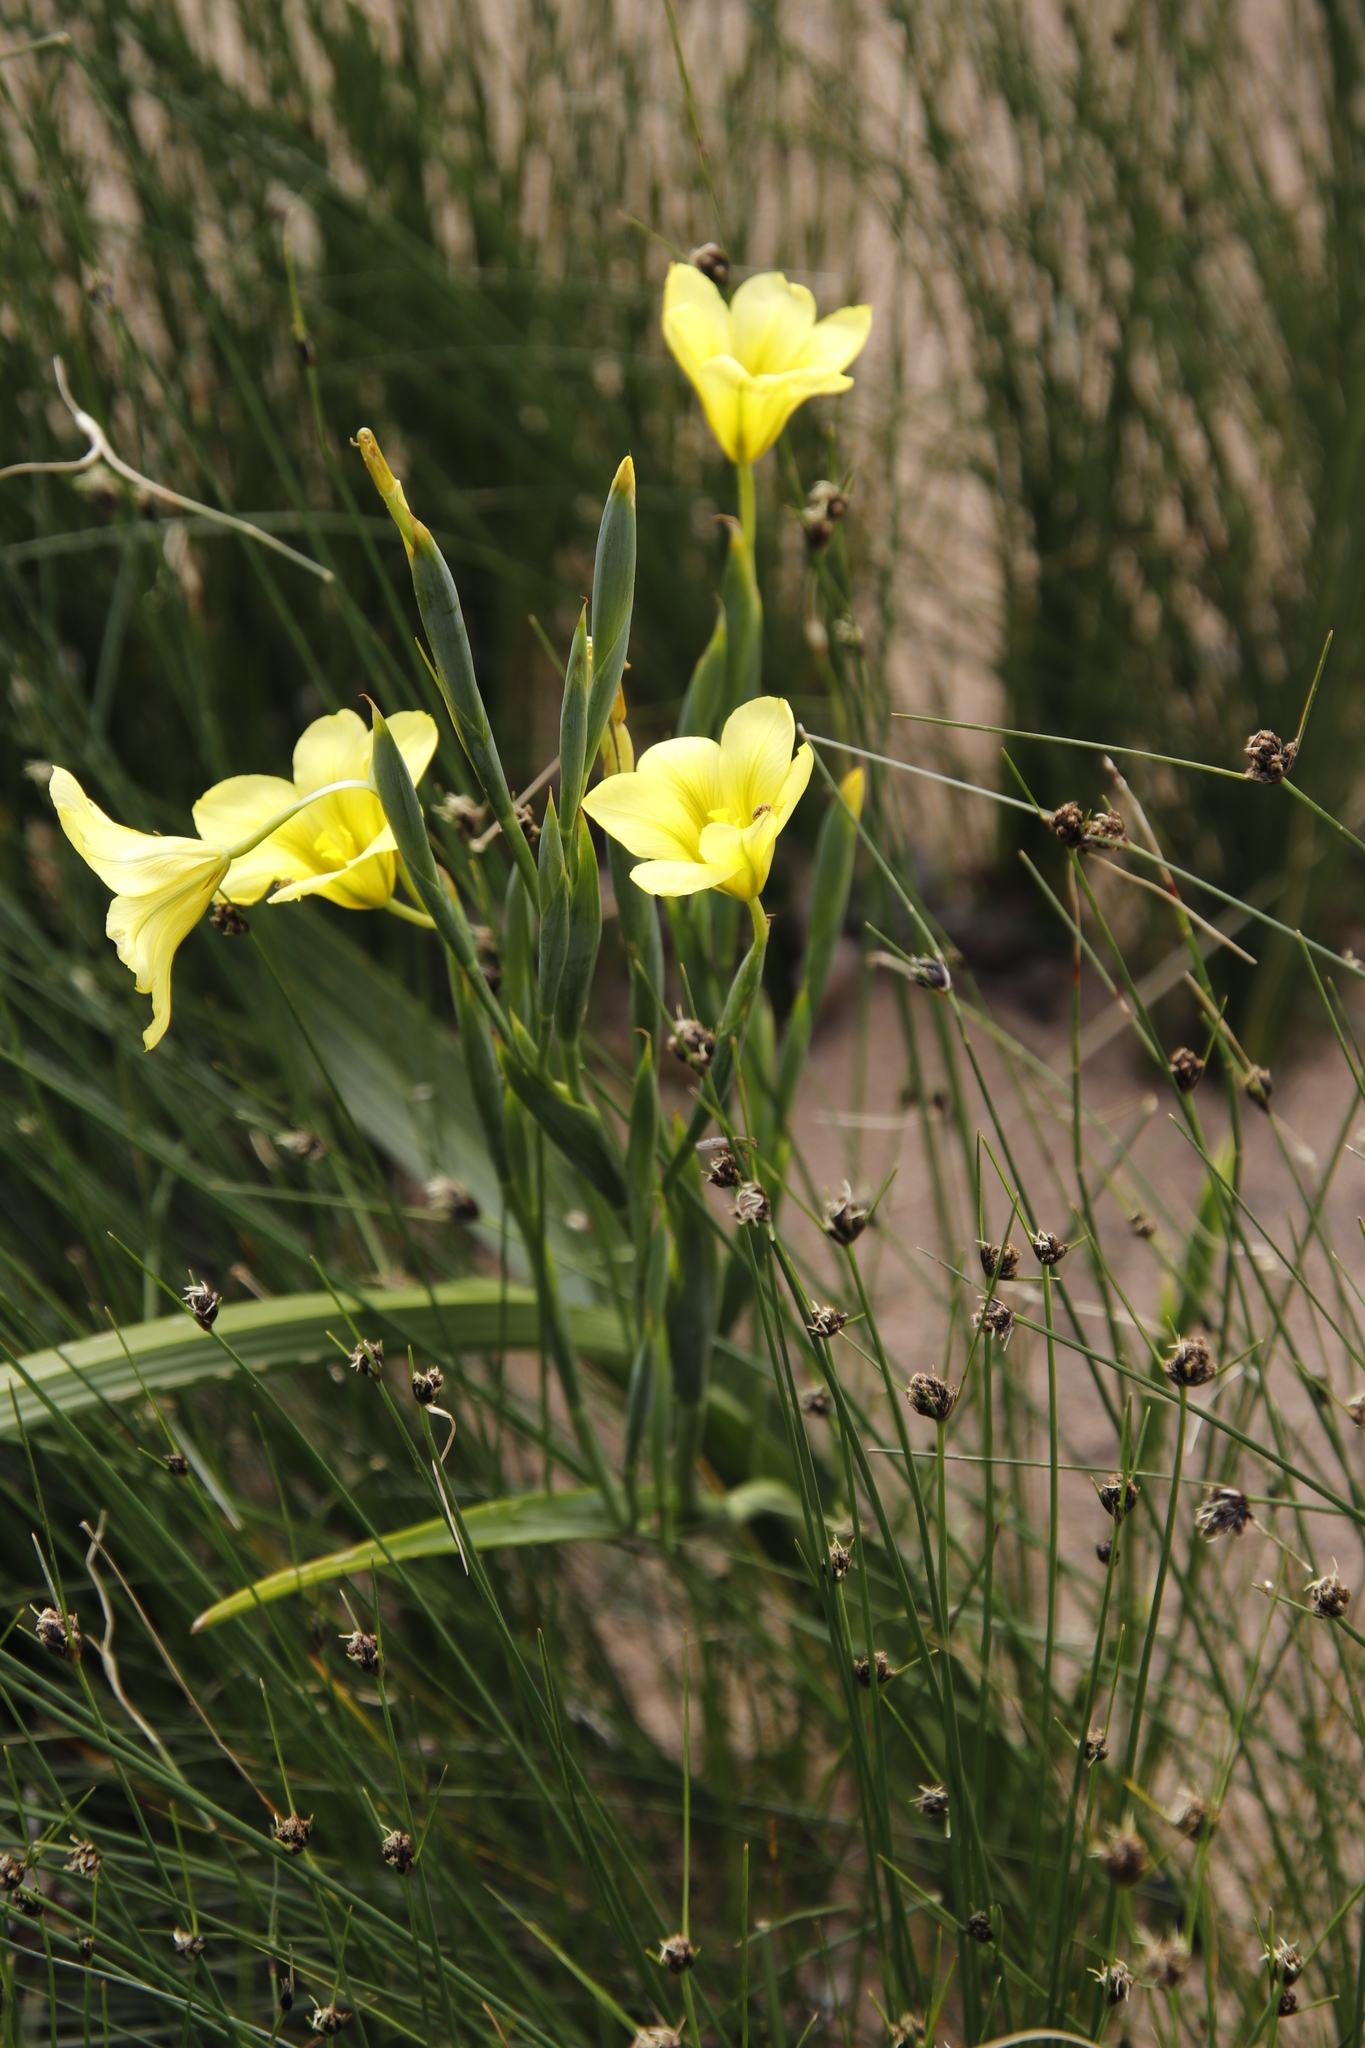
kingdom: Plantae
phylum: Tracheophyta
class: Liliopsida
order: Asparagales
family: Iridaceae
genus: Moraea
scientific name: Moraea ochroleuca
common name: Red tulp
